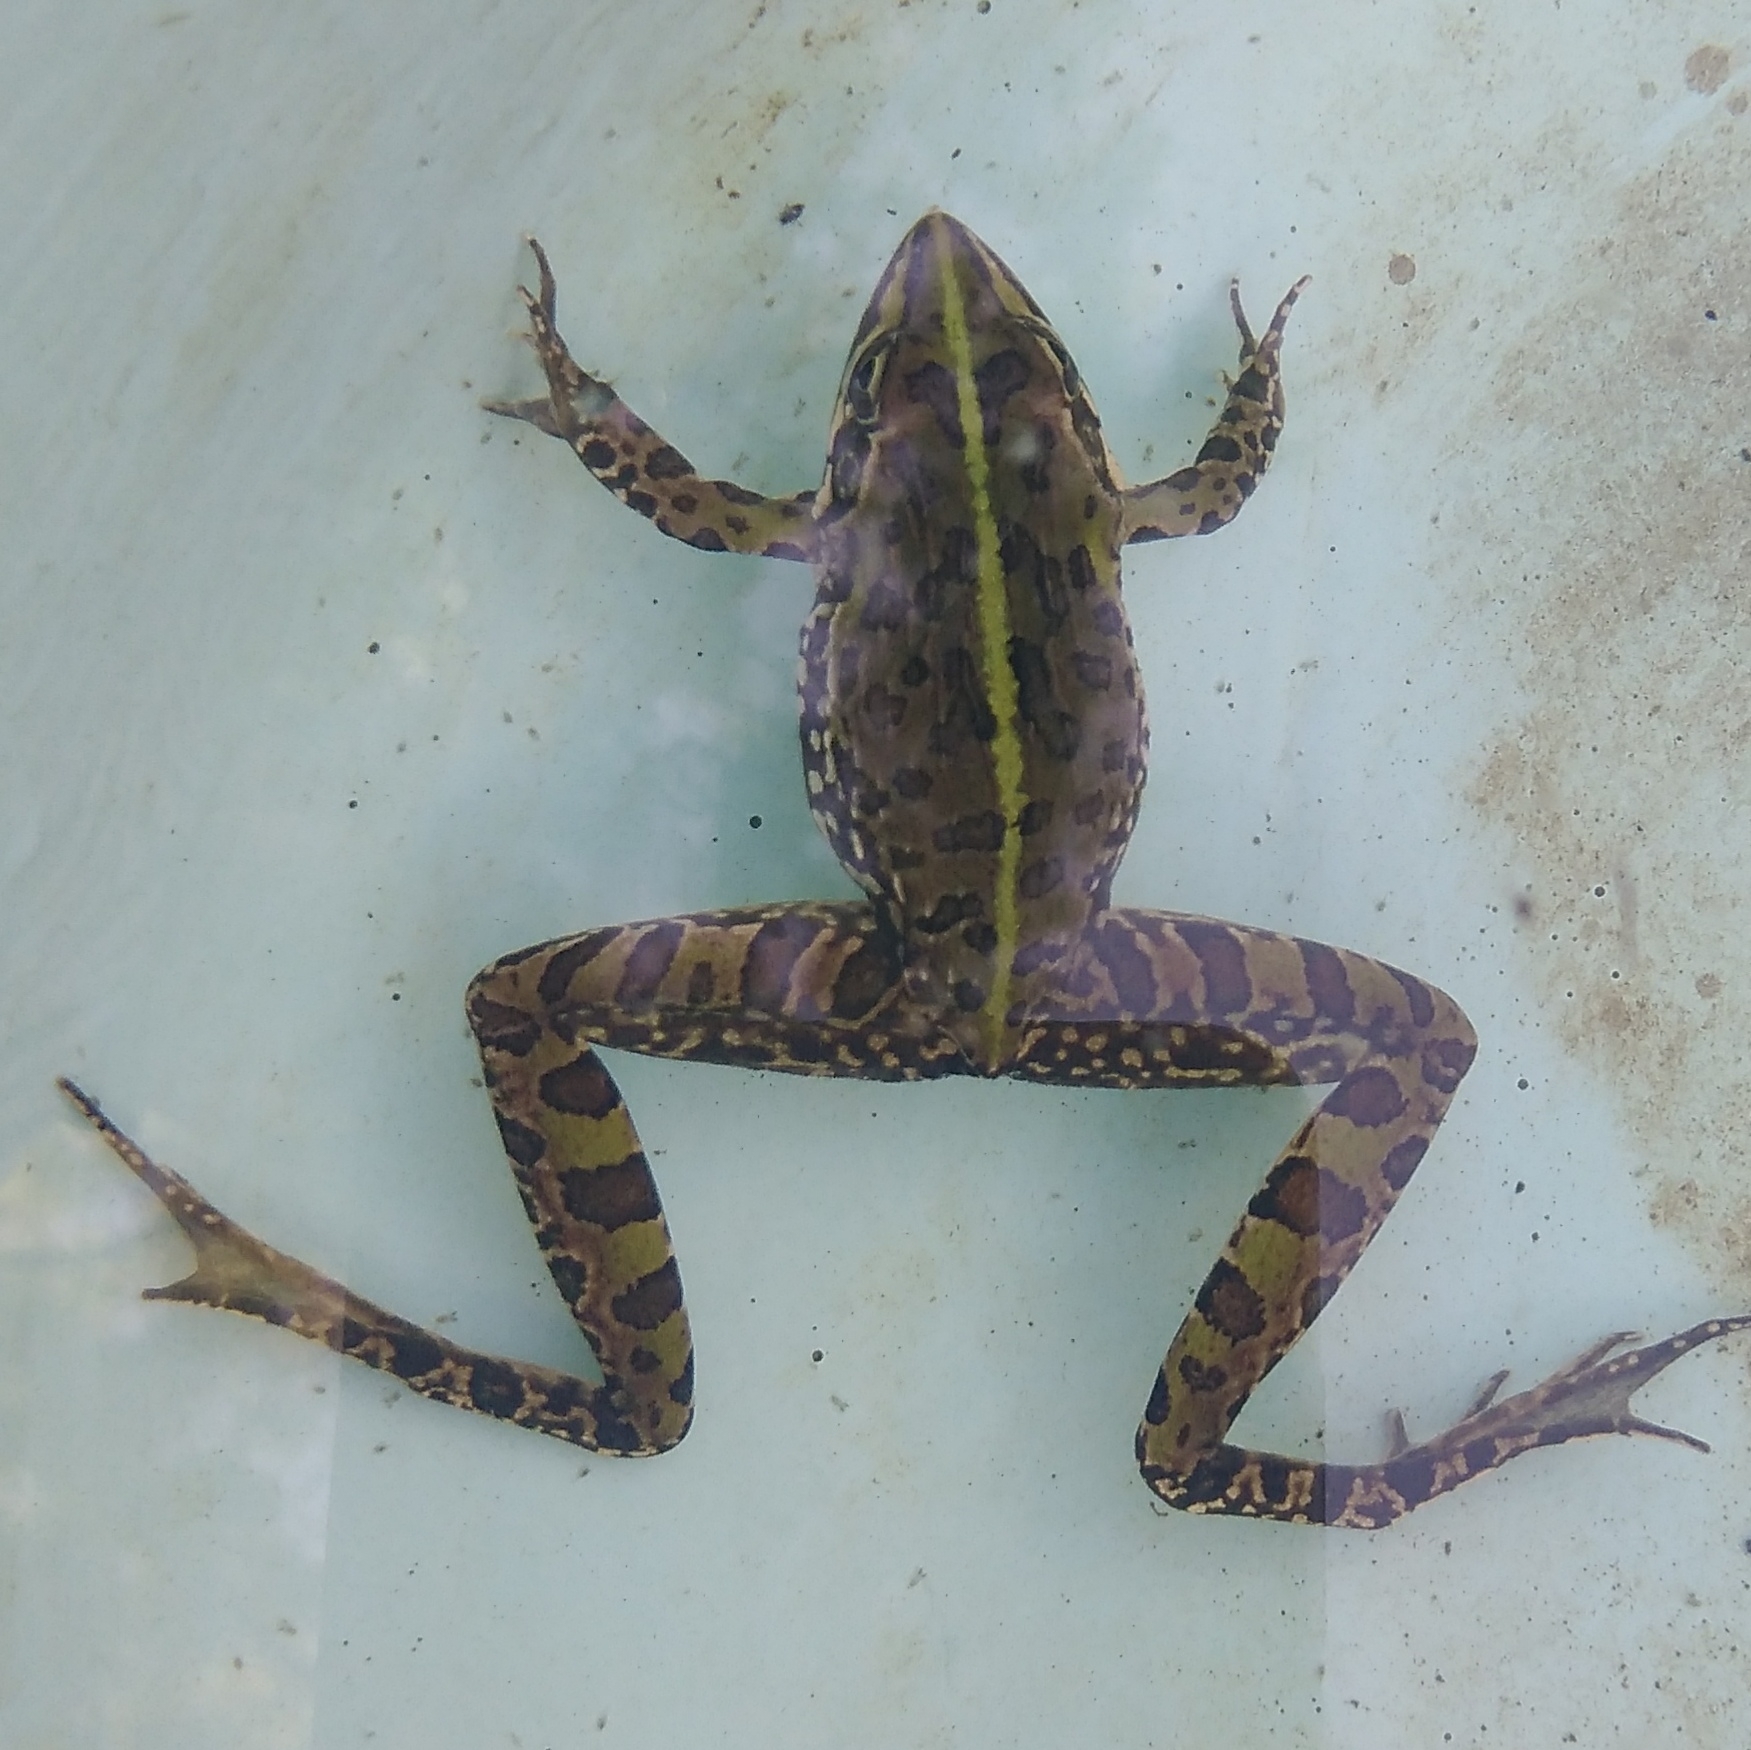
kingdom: Animalia
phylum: Chordata
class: Amphibia
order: Anura
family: Pyxicephalidae
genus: Amietia
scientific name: Amietia delalandii
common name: Delalande's river frog
